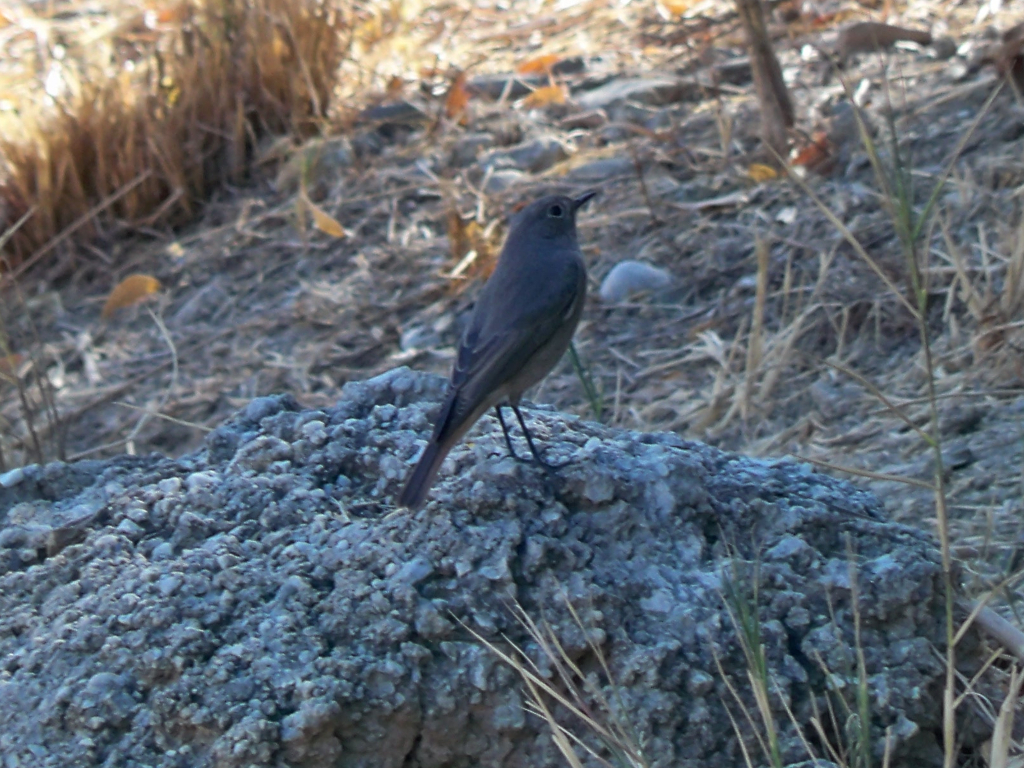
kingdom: Animalia
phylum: Chordata
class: Aves
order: Passeriformes
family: Muscicapidae
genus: Phoenicurus
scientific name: Phoenicurus ochruros
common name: Black redstart
